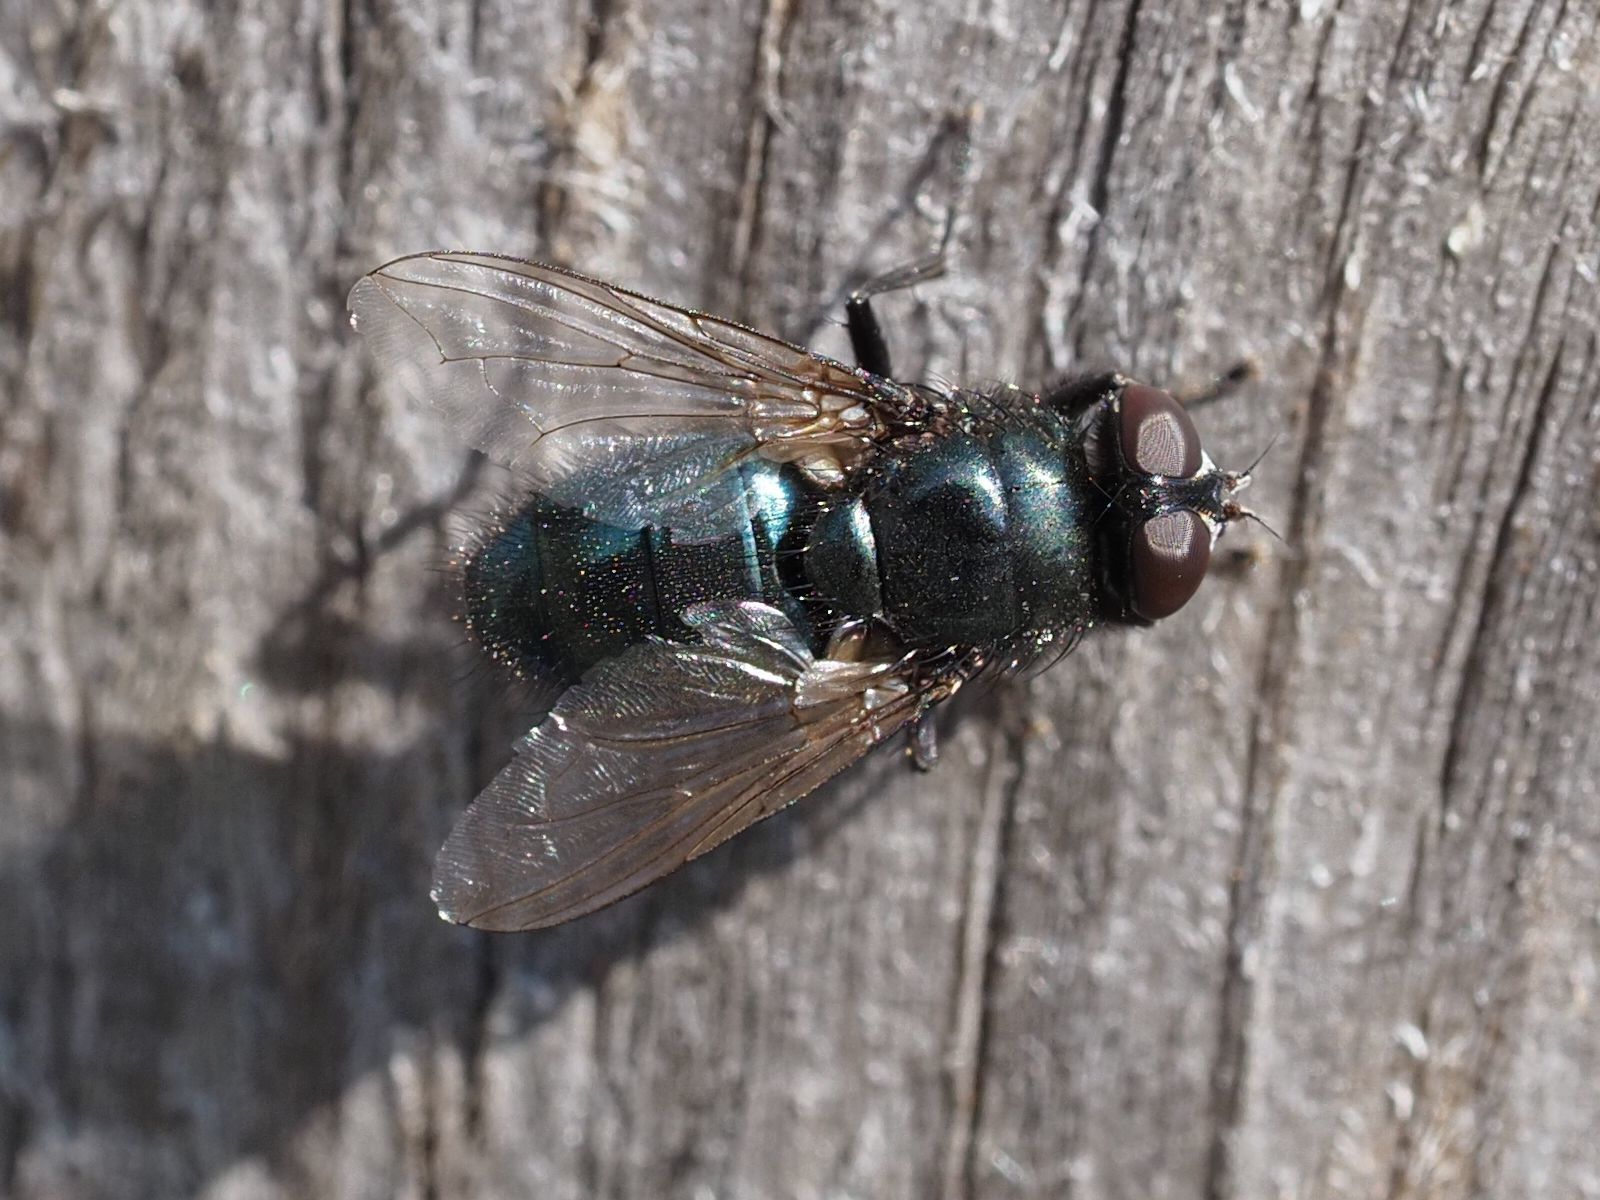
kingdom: Animalia
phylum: Arthropoda
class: Insecta
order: Diptera
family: Calliphoridae
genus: Protophormia
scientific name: Protophormia terraenovae
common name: Blackbottle
